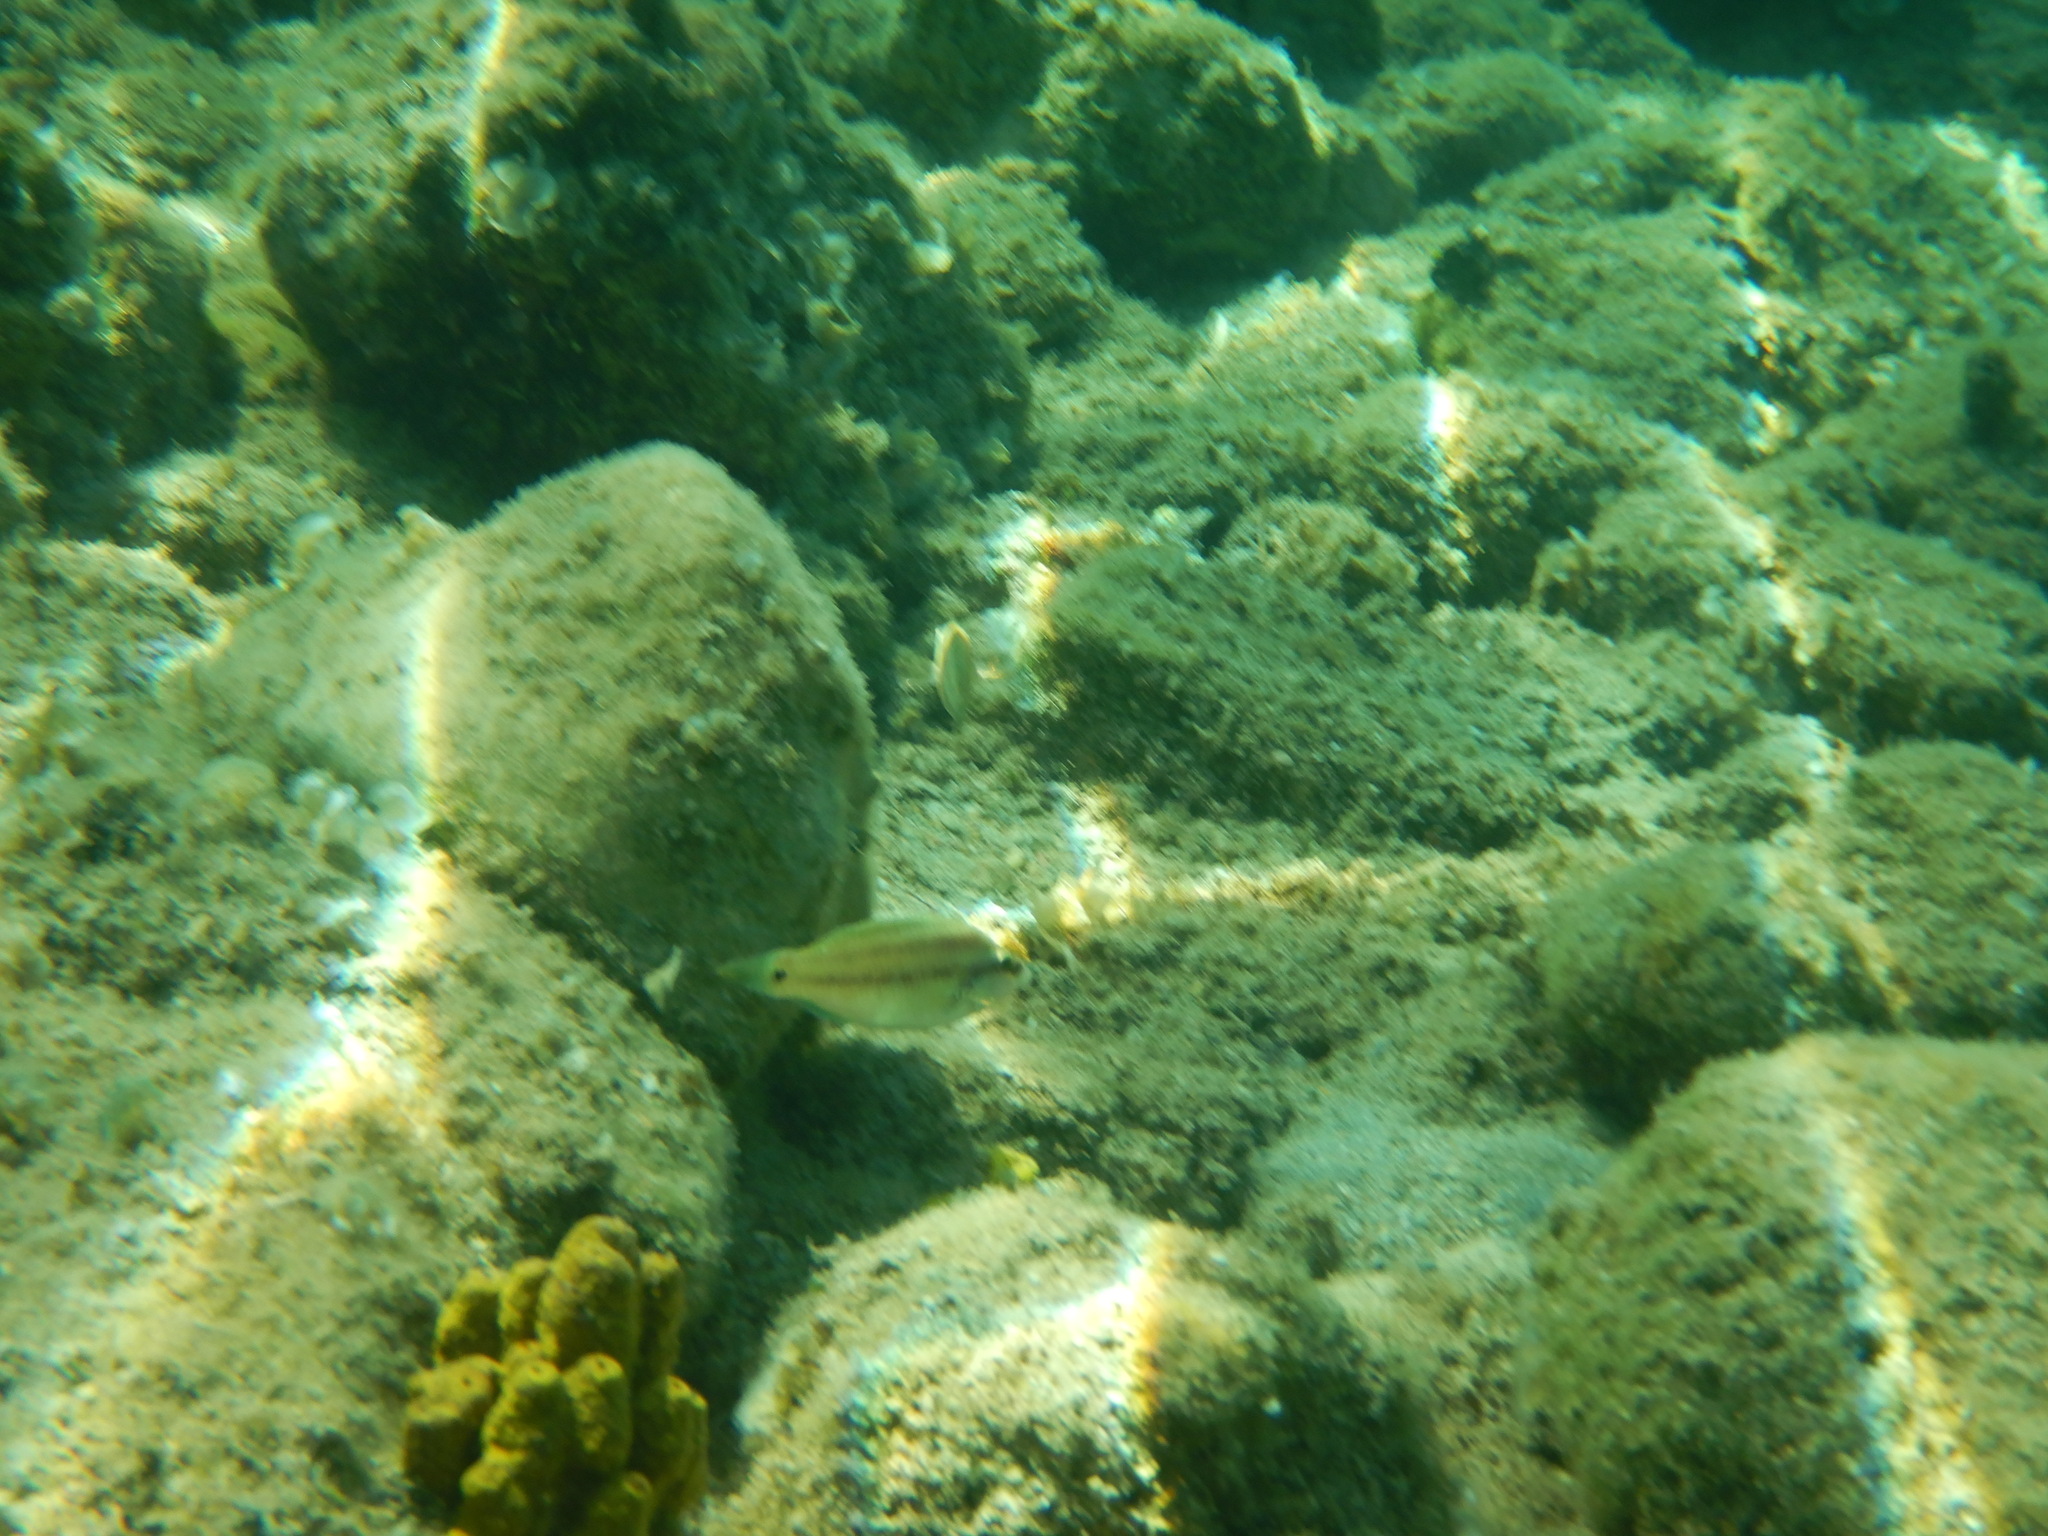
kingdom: Animalia
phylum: Chordata
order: Perciformes
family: Labridae
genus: Symphodus
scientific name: Symphodus tinca
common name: Peacock wrasse
